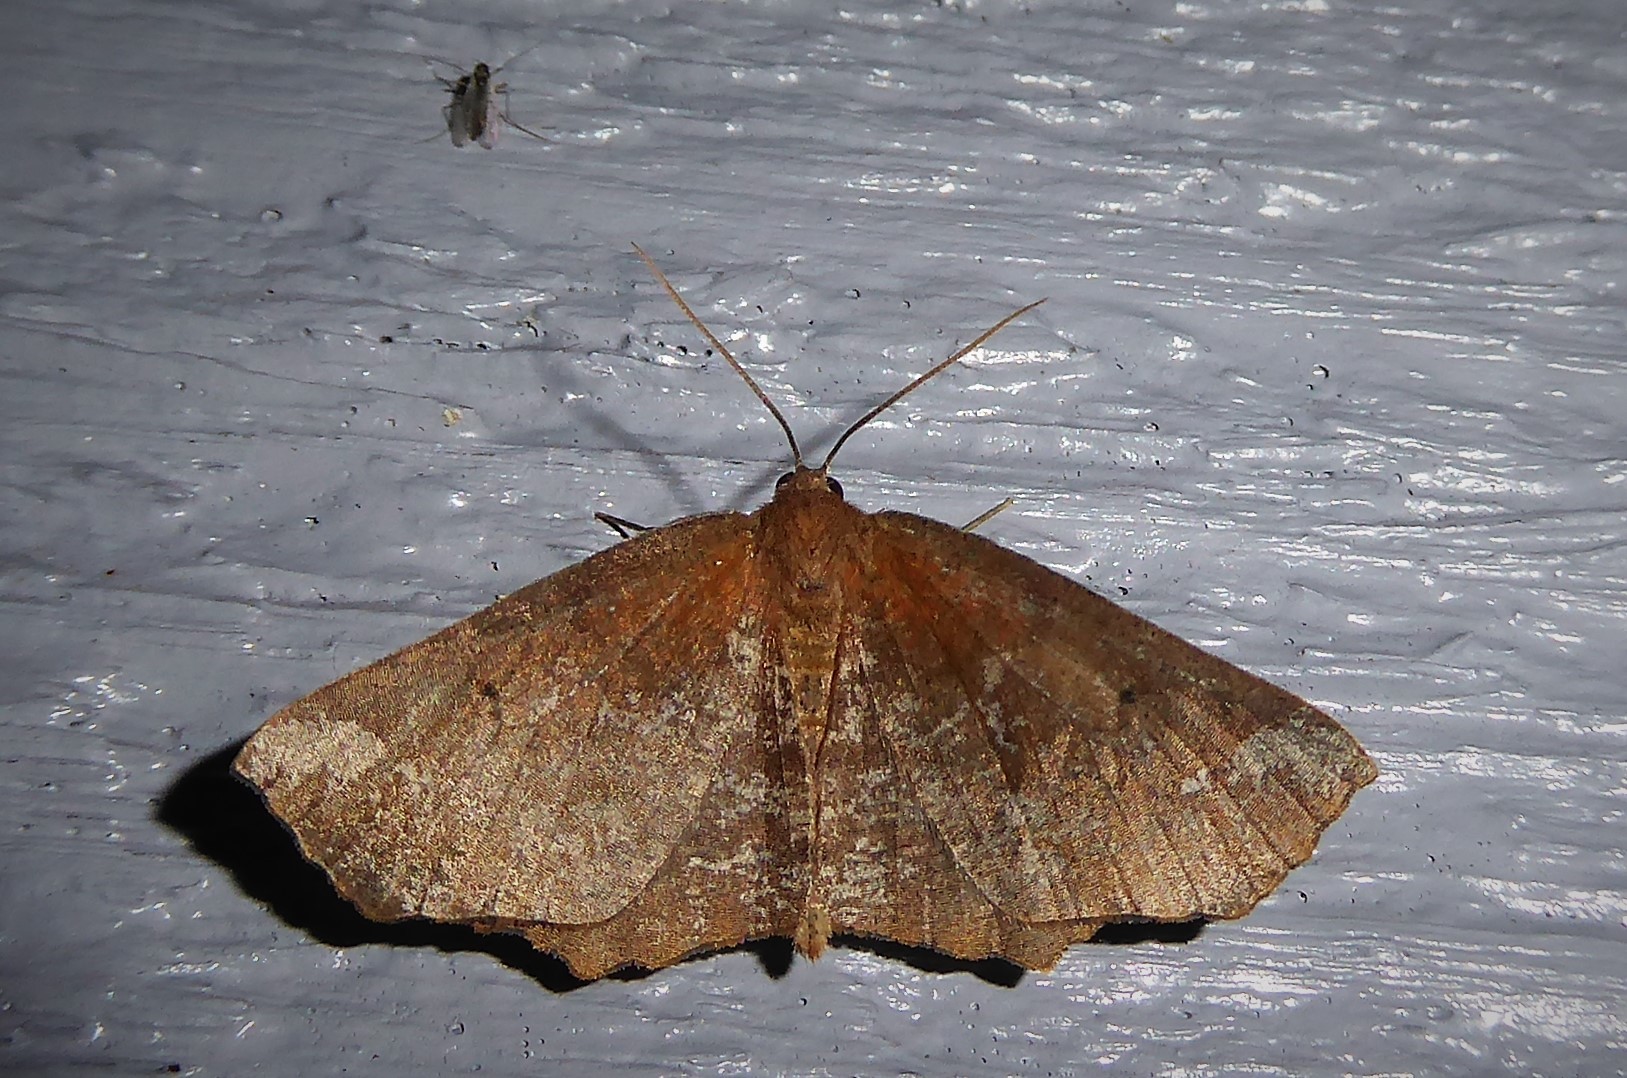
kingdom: Animalia
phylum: Arthropoda
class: Insecta
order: Lepidoptera
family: Geometridae
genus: Xyridacma
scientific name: Xyridacma ustaria
